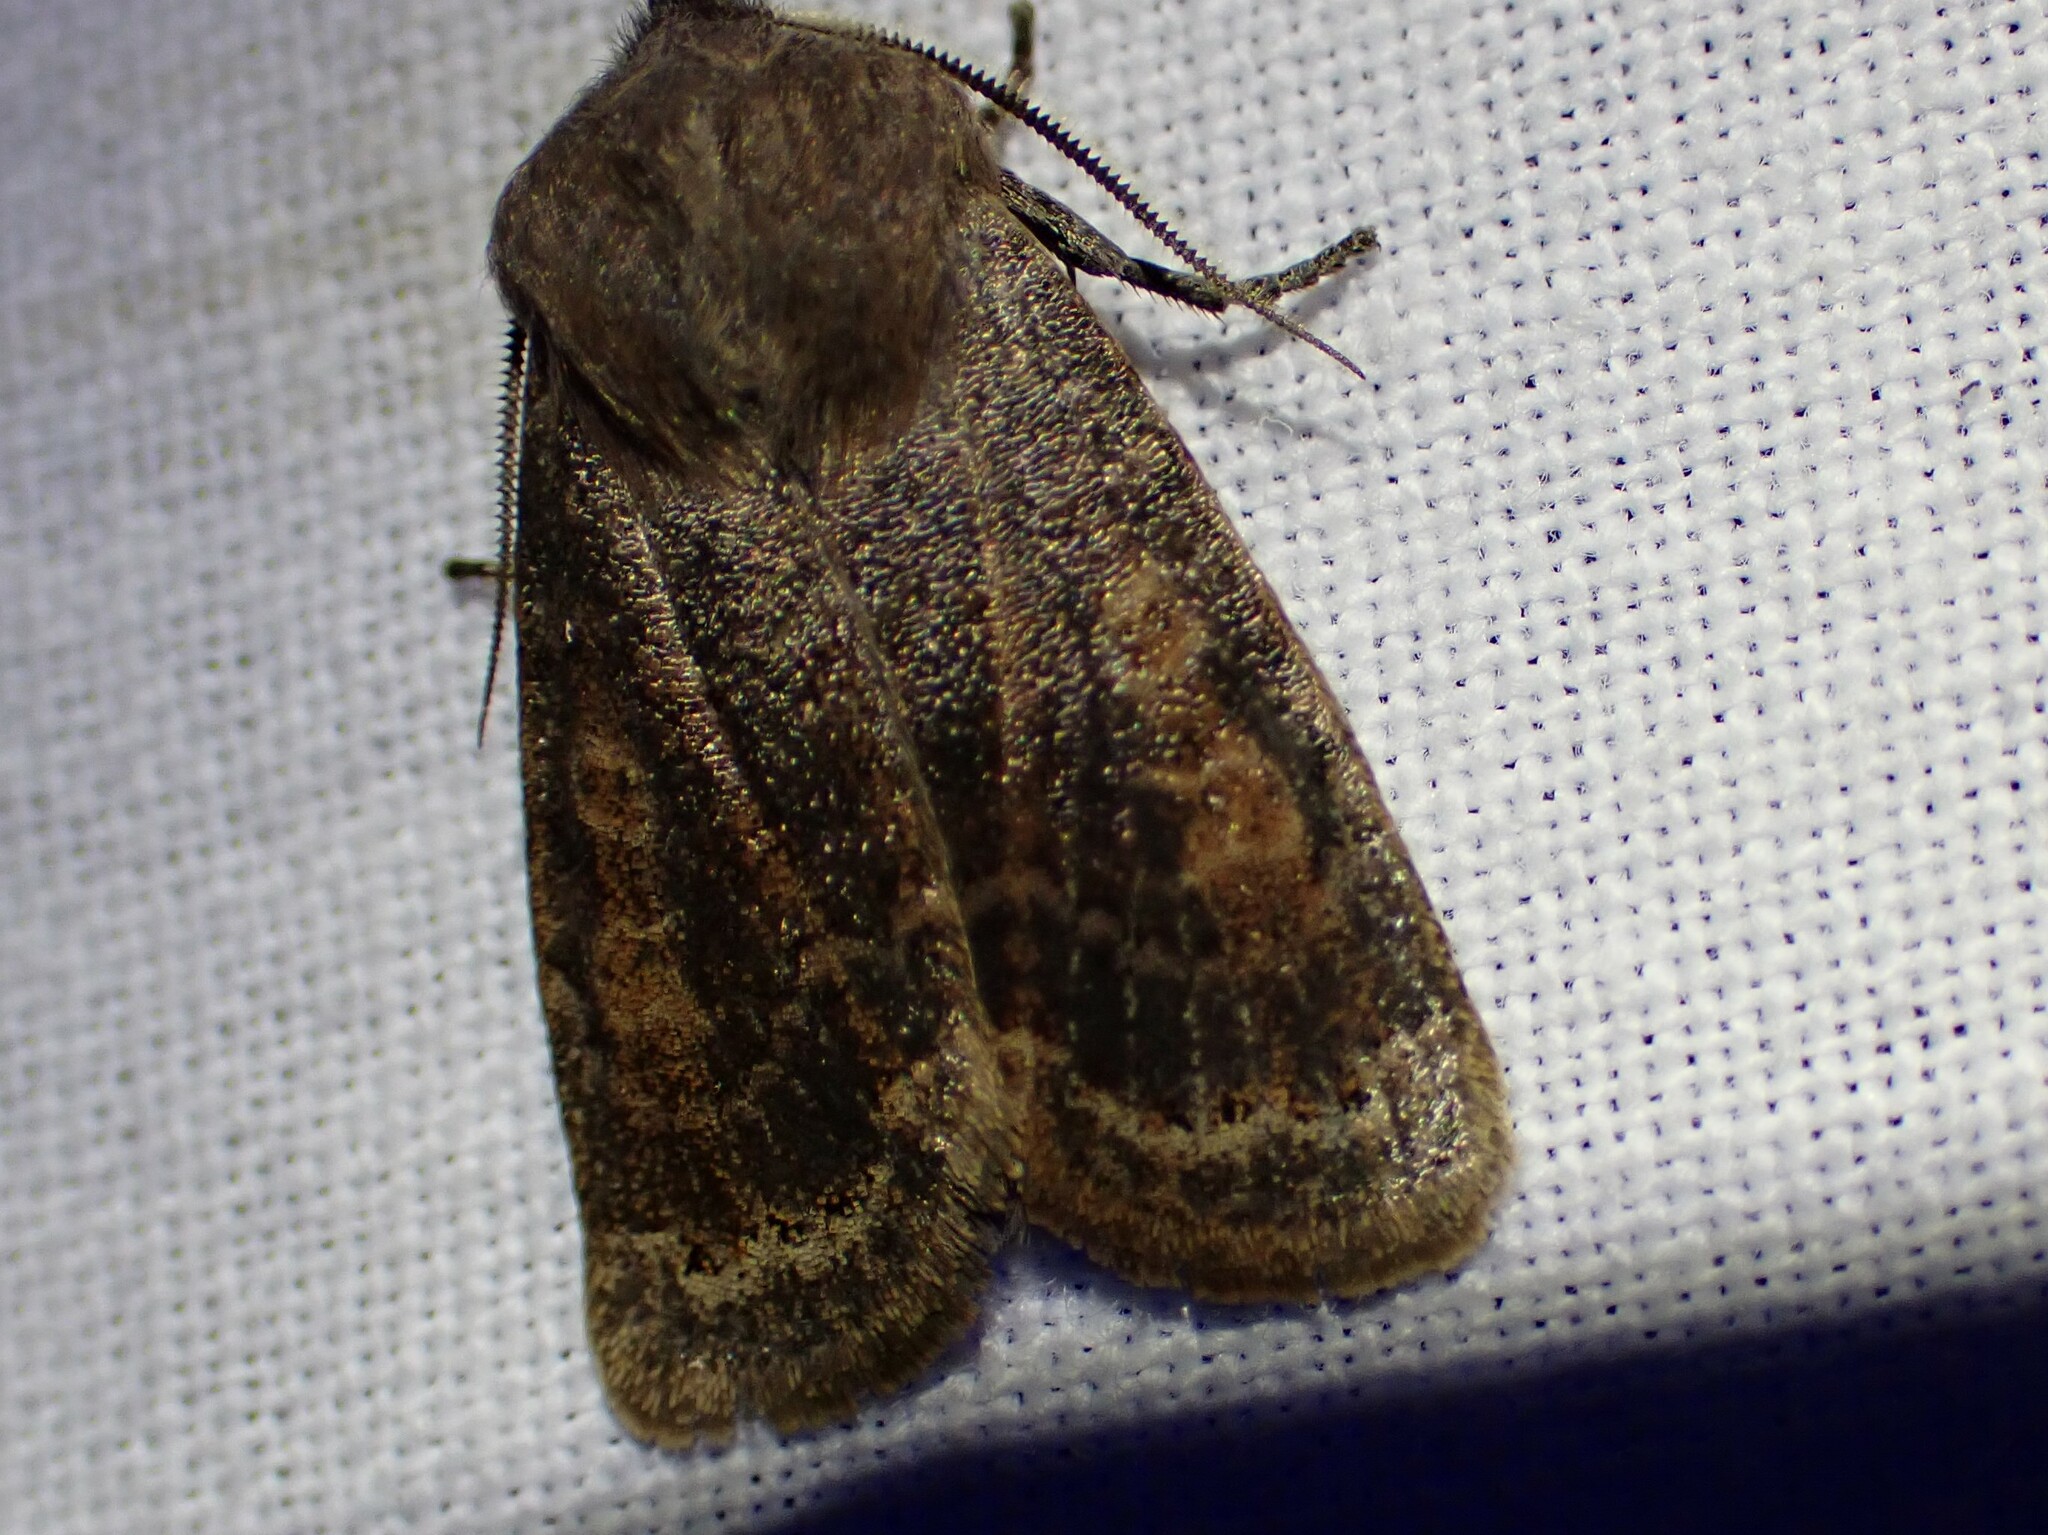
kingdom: Animalia
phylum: Arthropoda
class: Insecta
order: Lepidoptera
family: Noctuidae
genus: Homoglaea
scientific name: Homoglaea hircina
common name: Goat sallow
